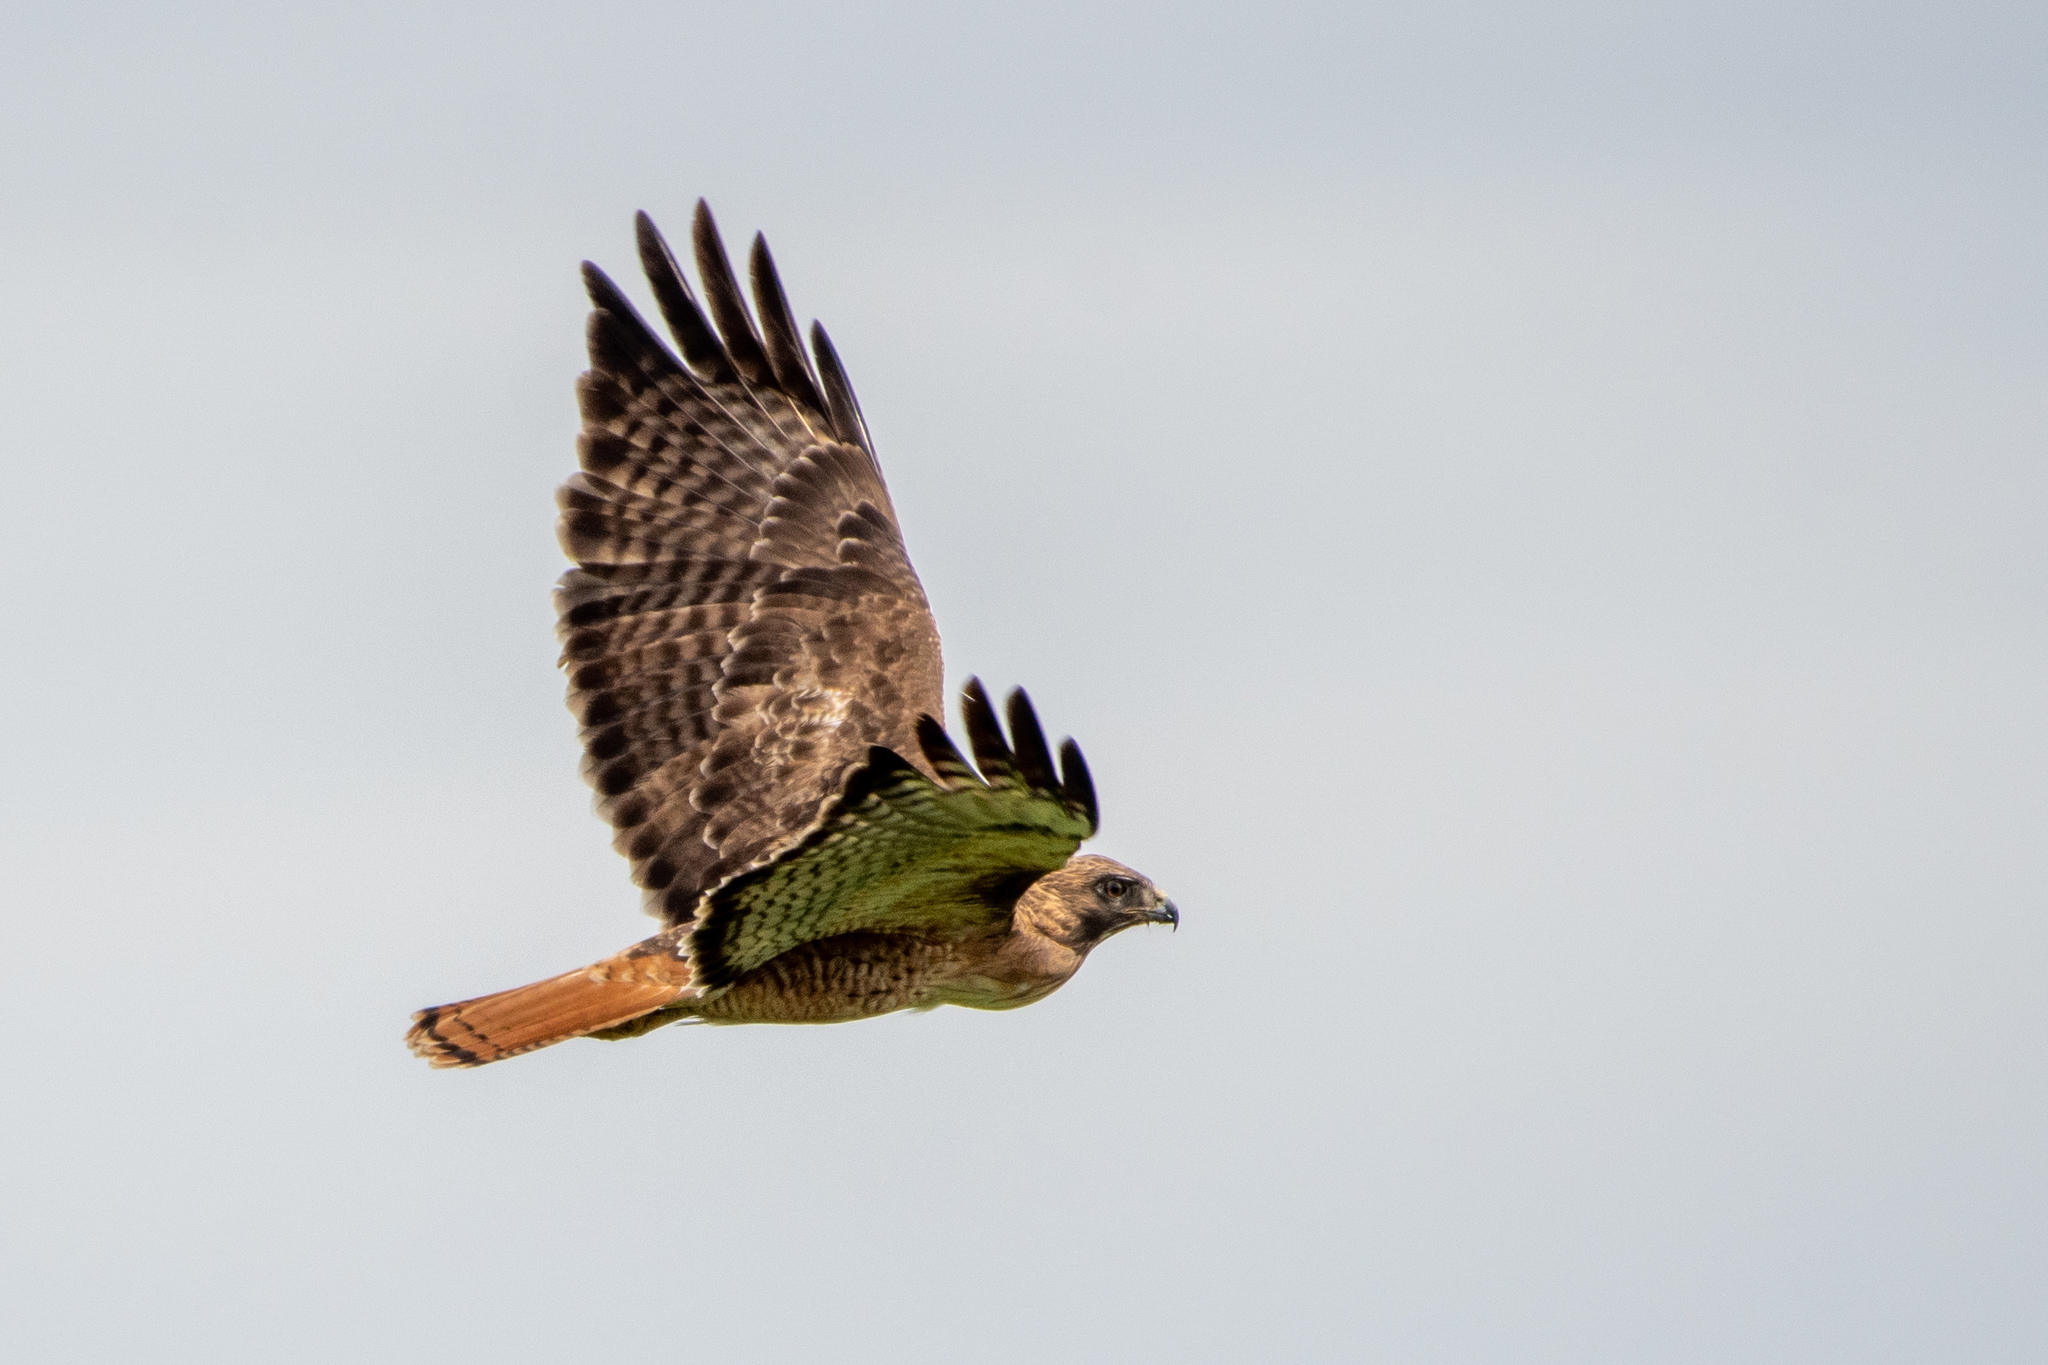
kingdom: Animalia
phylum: Chordata
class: Aves
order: Accipitriformes
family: Accipitridae
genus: Buteo
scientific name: Buteo jamaicensis
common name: Red-tailed hawk
